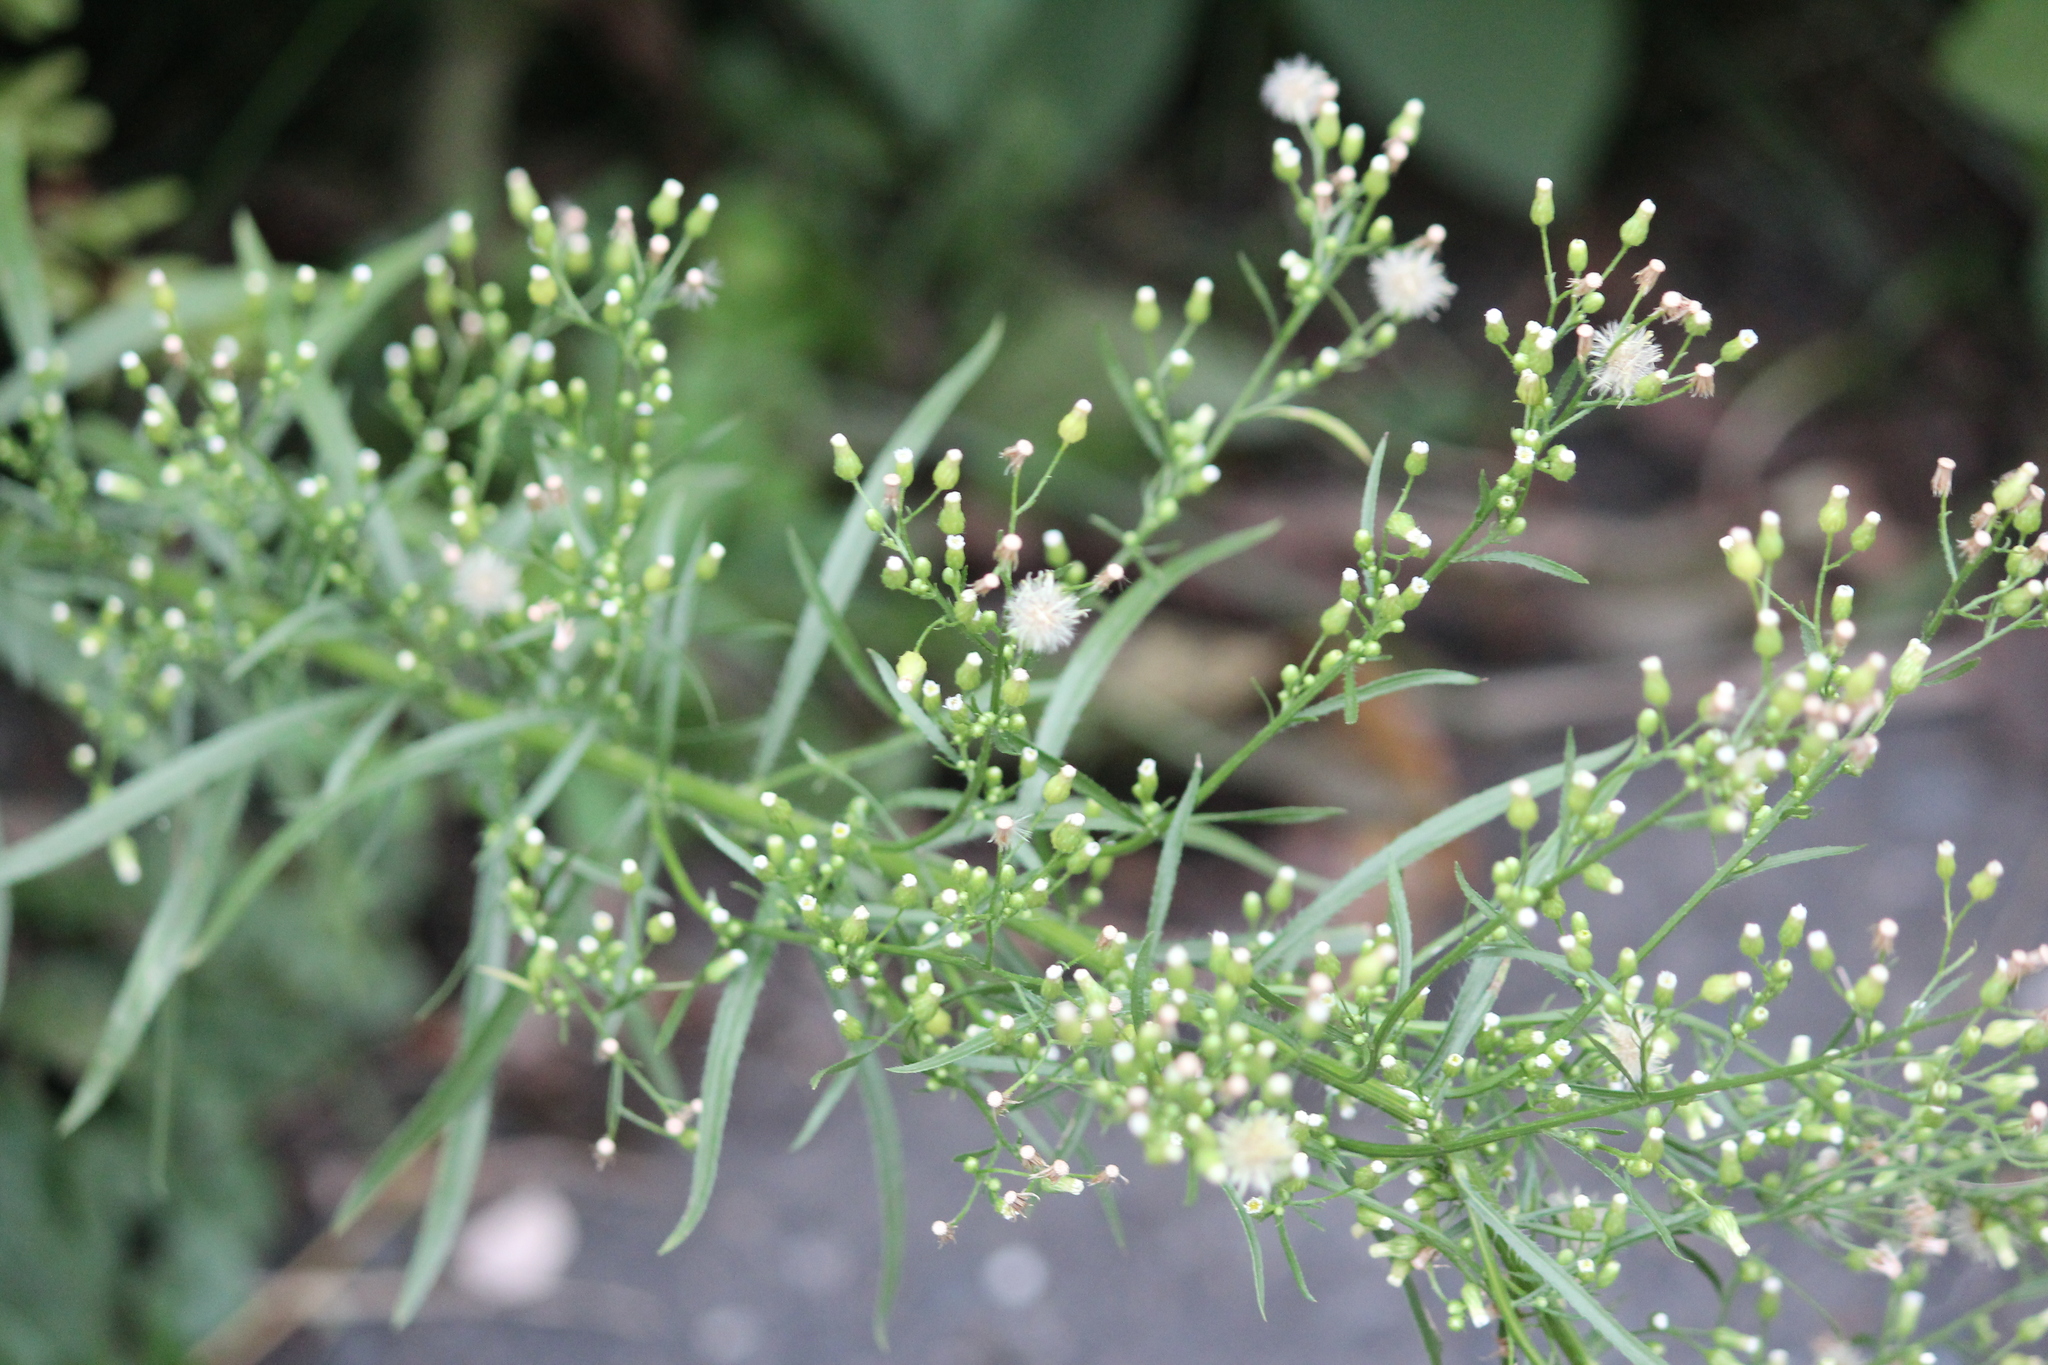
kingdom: Plantae
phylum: Tracheophyta
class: Magnoliopsida
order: Asterales
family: Asteraceae
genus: Erigeron
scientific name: Erigeron canadensis
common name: Canadian fleabane
